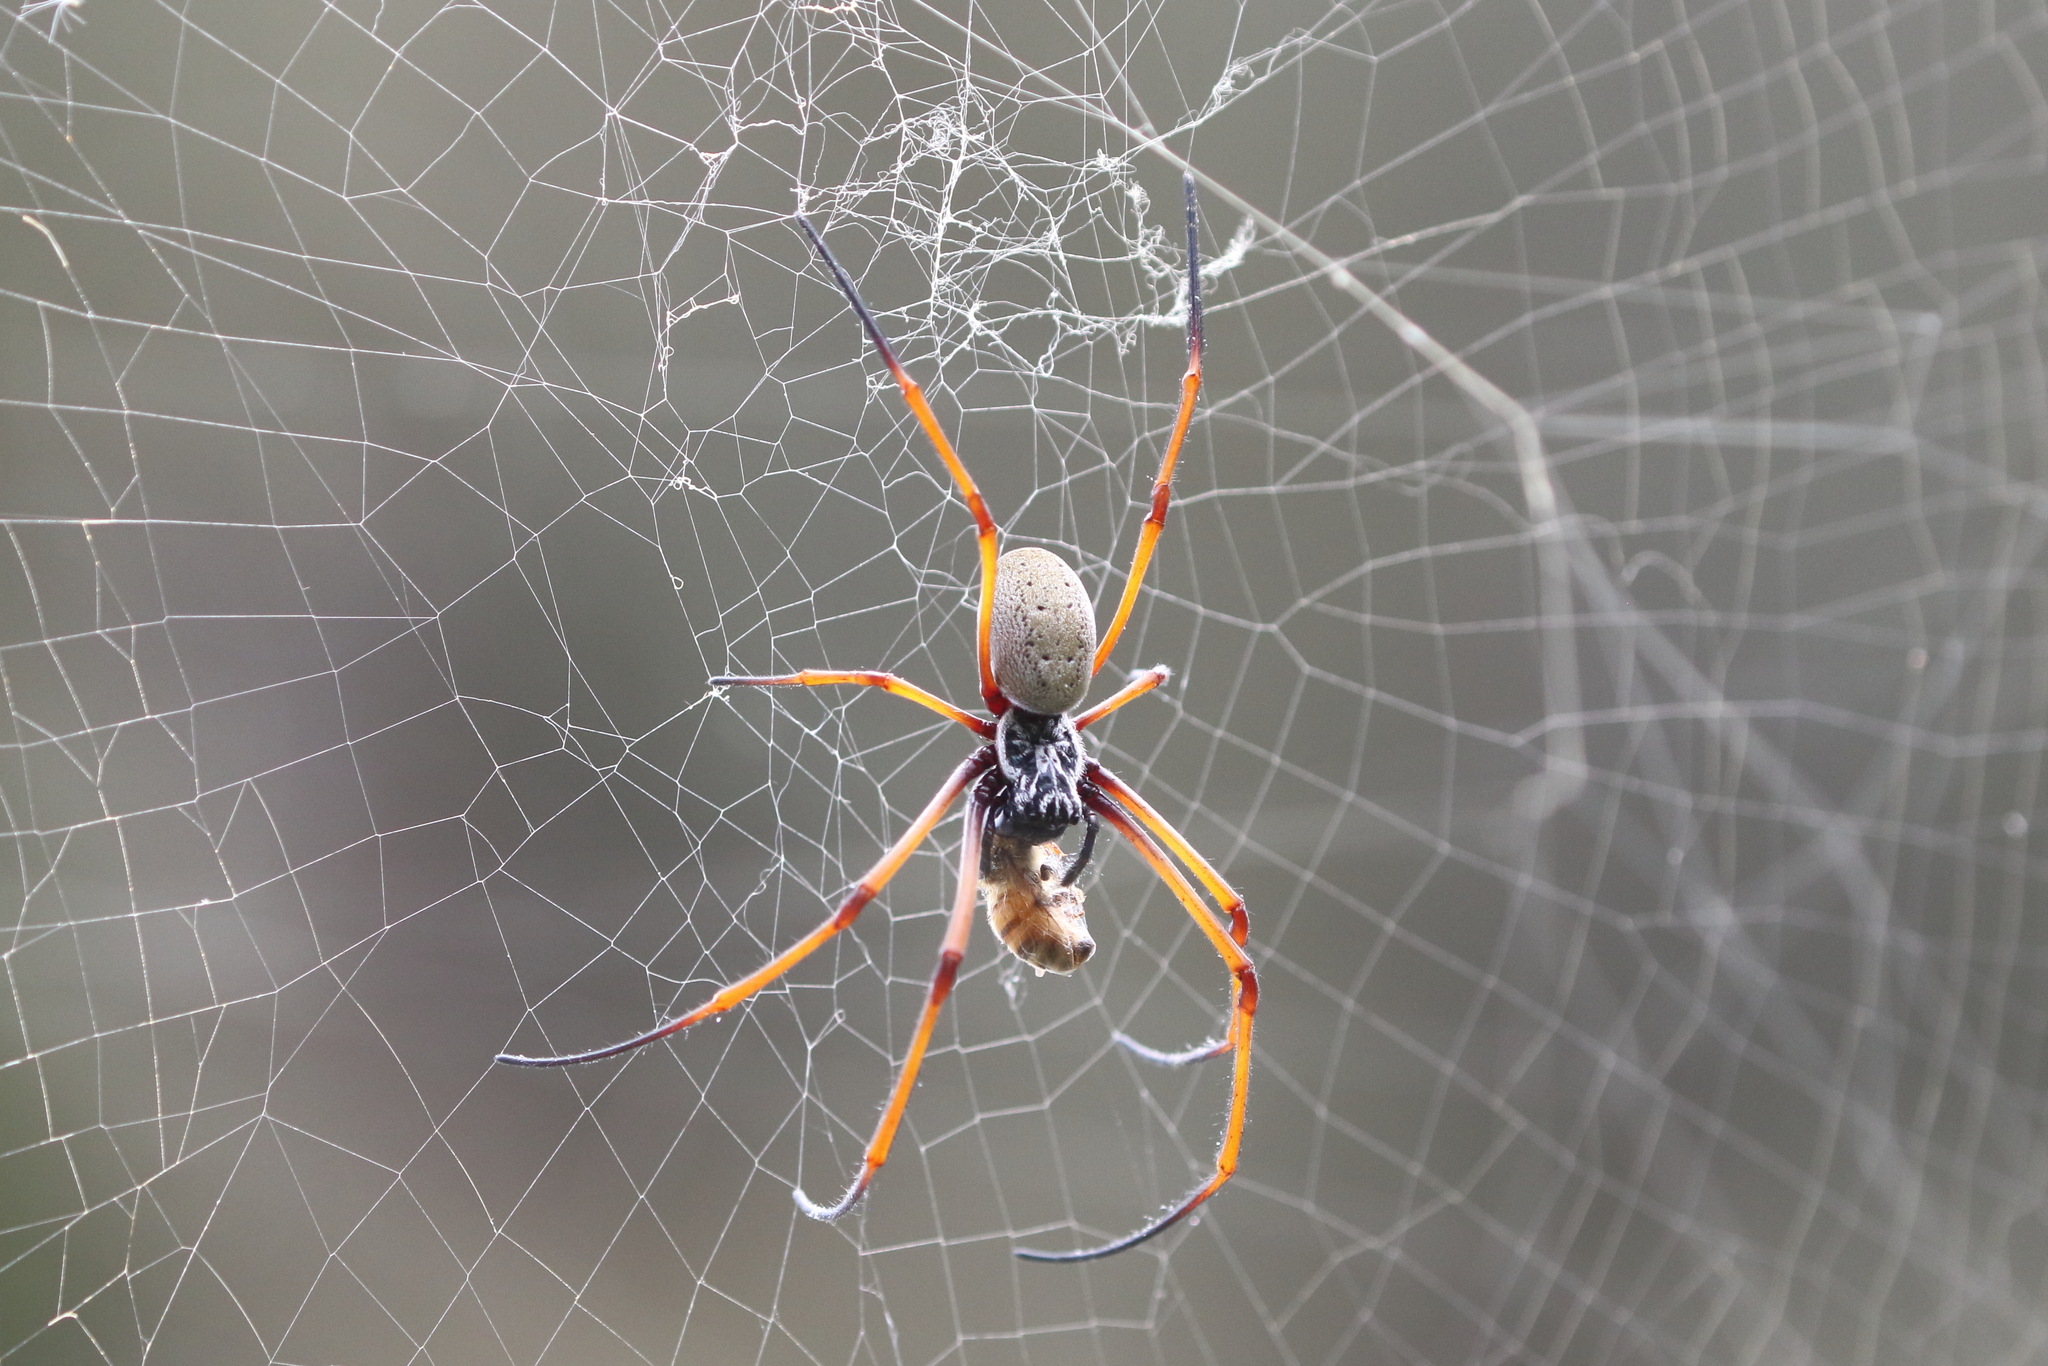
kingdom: Animalia
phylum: Arthropoda
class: Arachnida
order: Araneae
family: Araneidae
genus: Trichonephila
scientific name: Trichonephila plumipes
